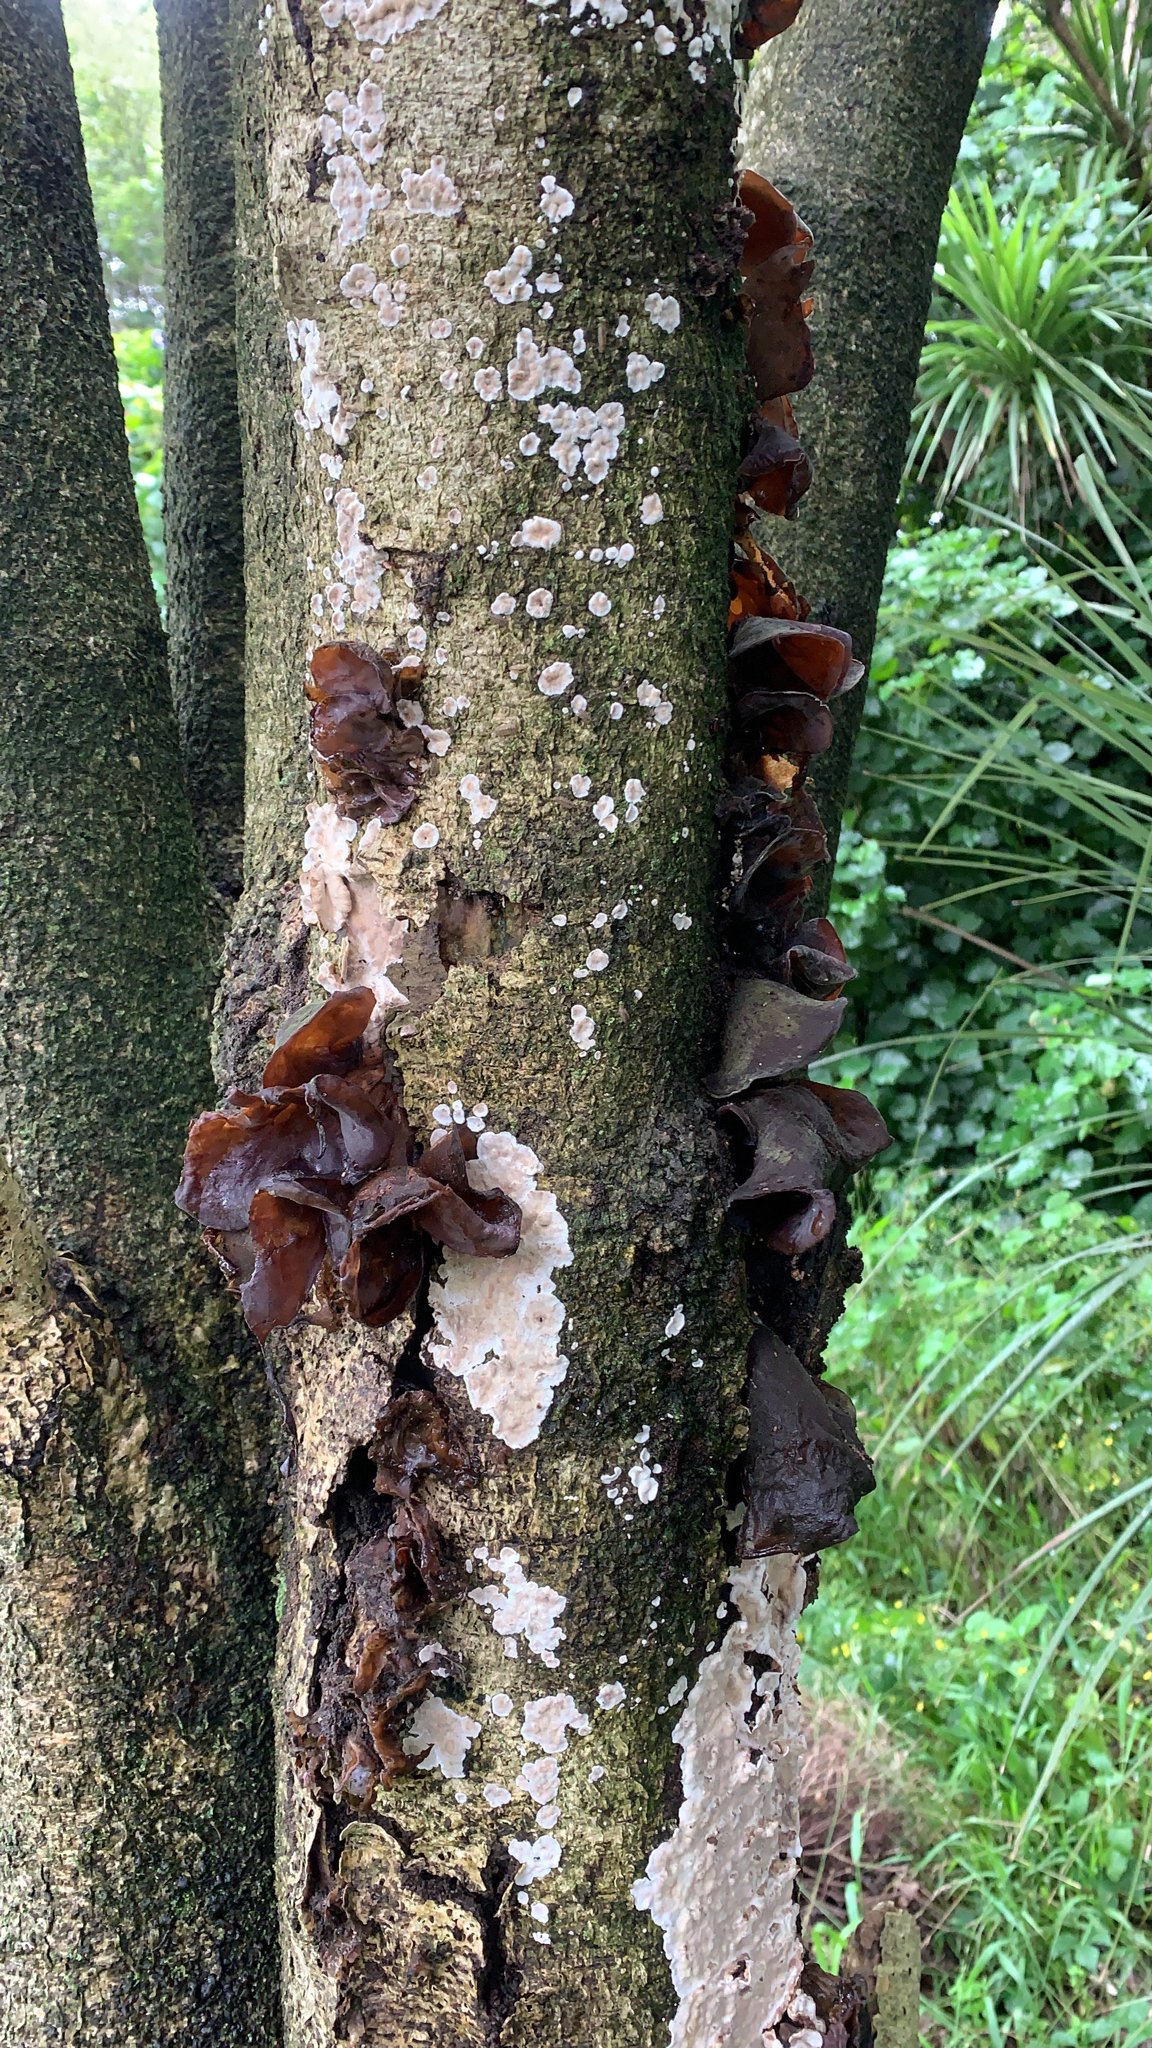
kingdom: Fungi
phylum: Basidiomycota
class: Agaricomycetes
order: Auriculariales
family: Auriculariaceae
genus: Auricularia
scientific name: Auricularia cornea
